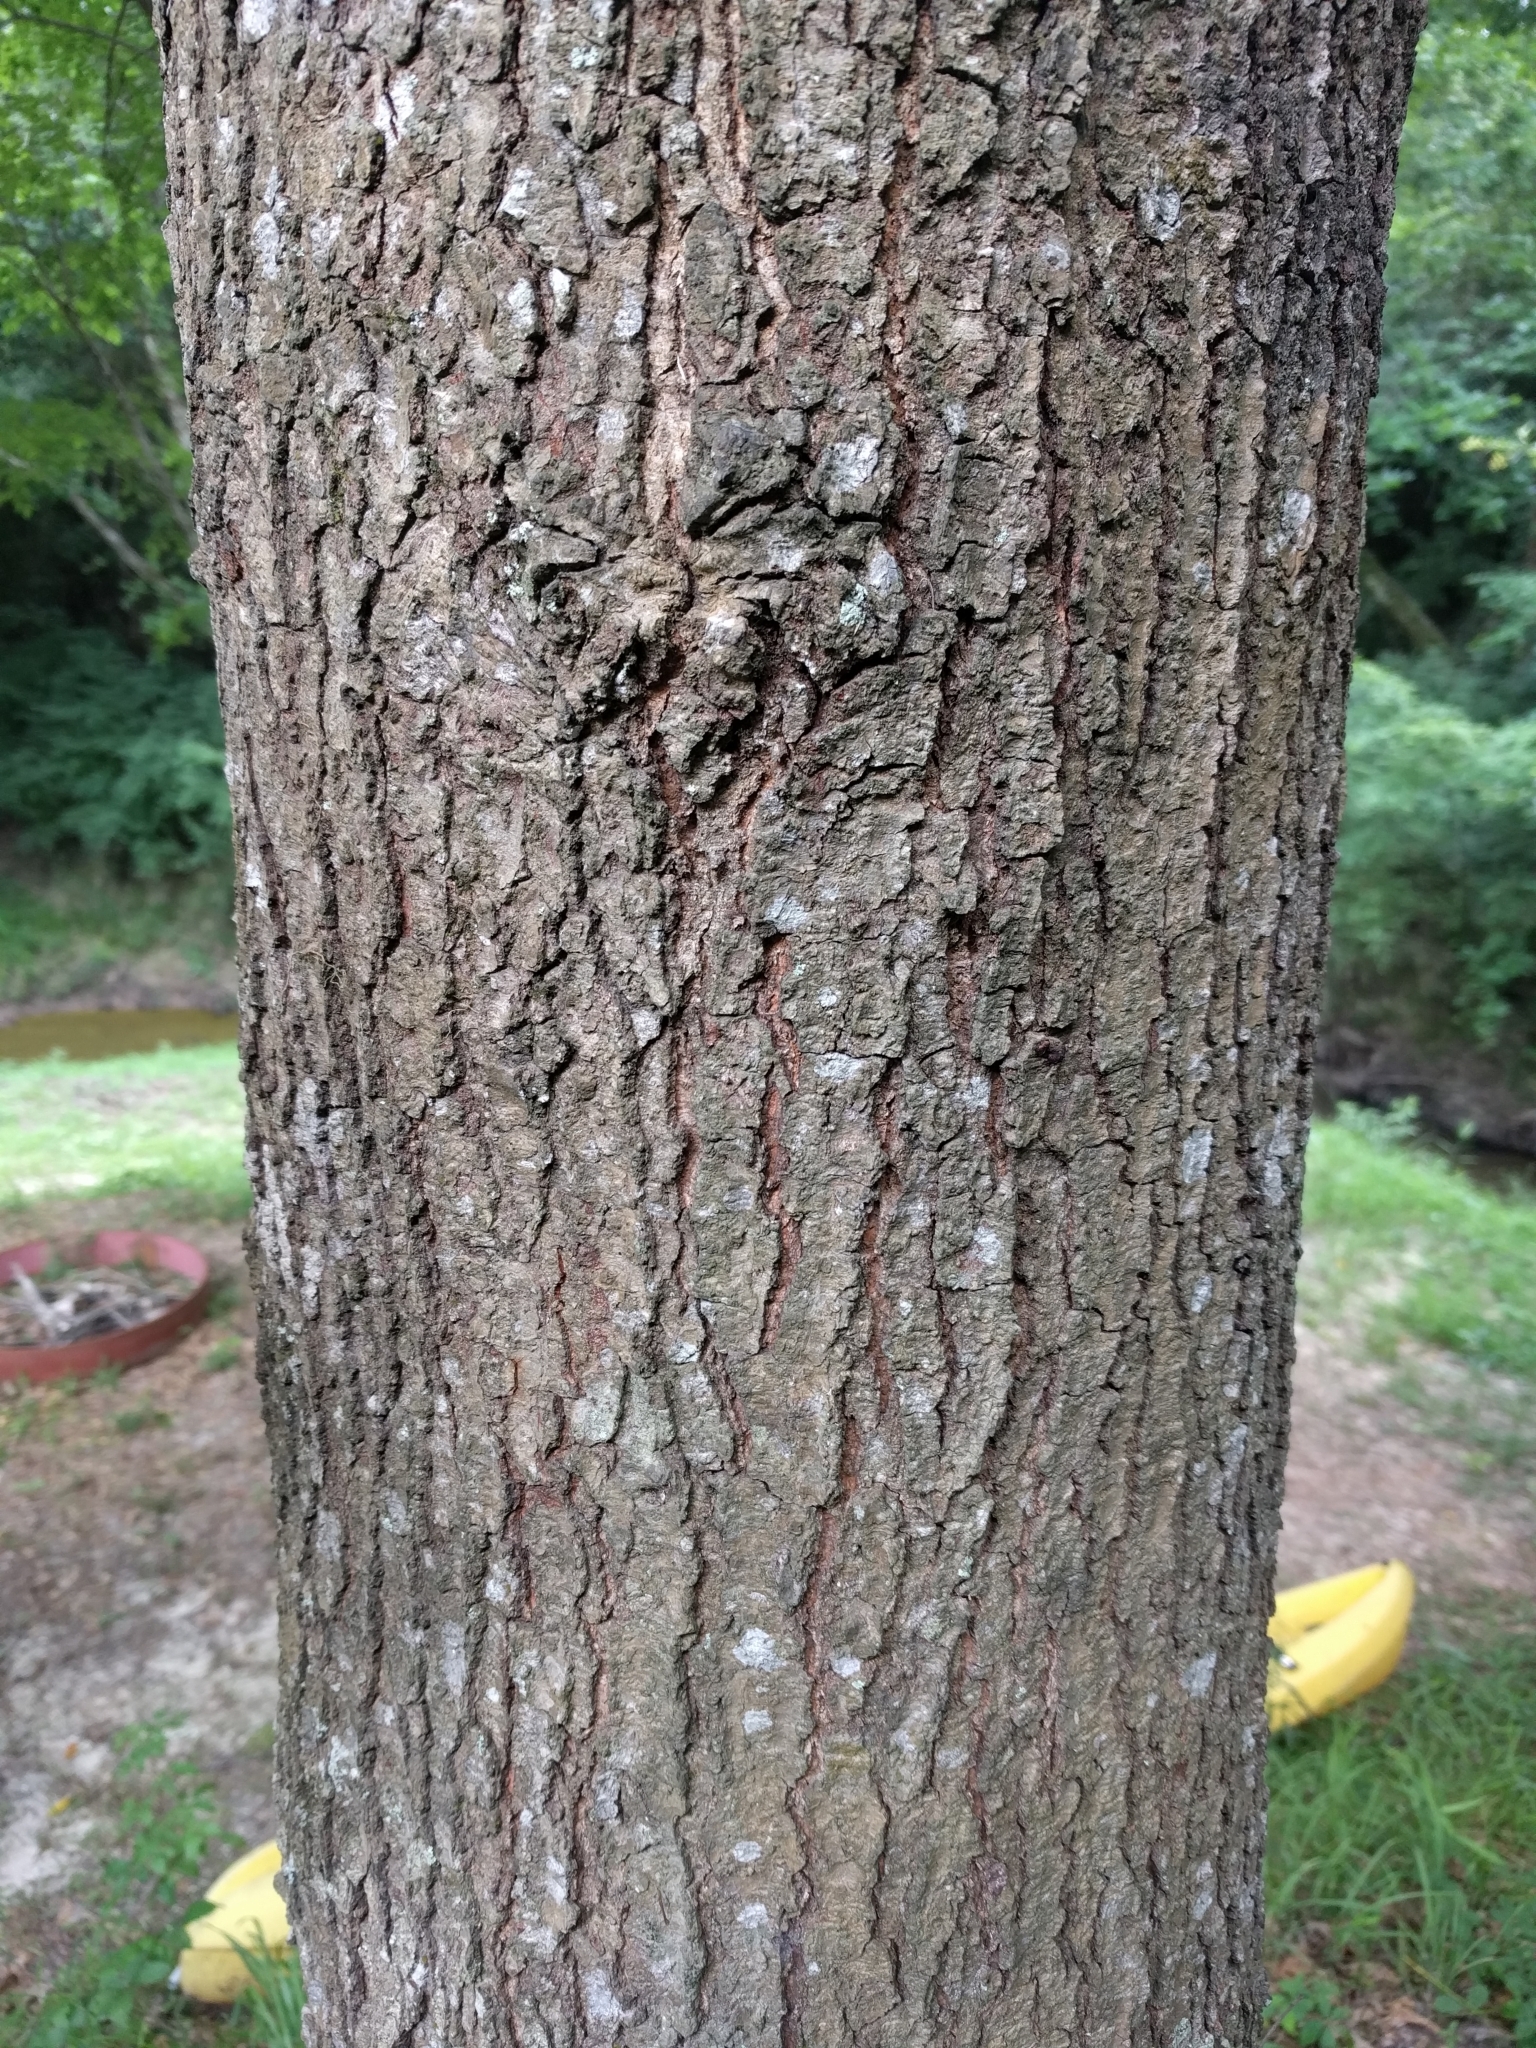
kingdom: Plantae
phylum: Tracheophyta
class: Magnoliopsida
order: Fagales
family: Fagaceae
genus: Quercus
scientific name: Quercus pagoda
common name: Cherrybark oak
